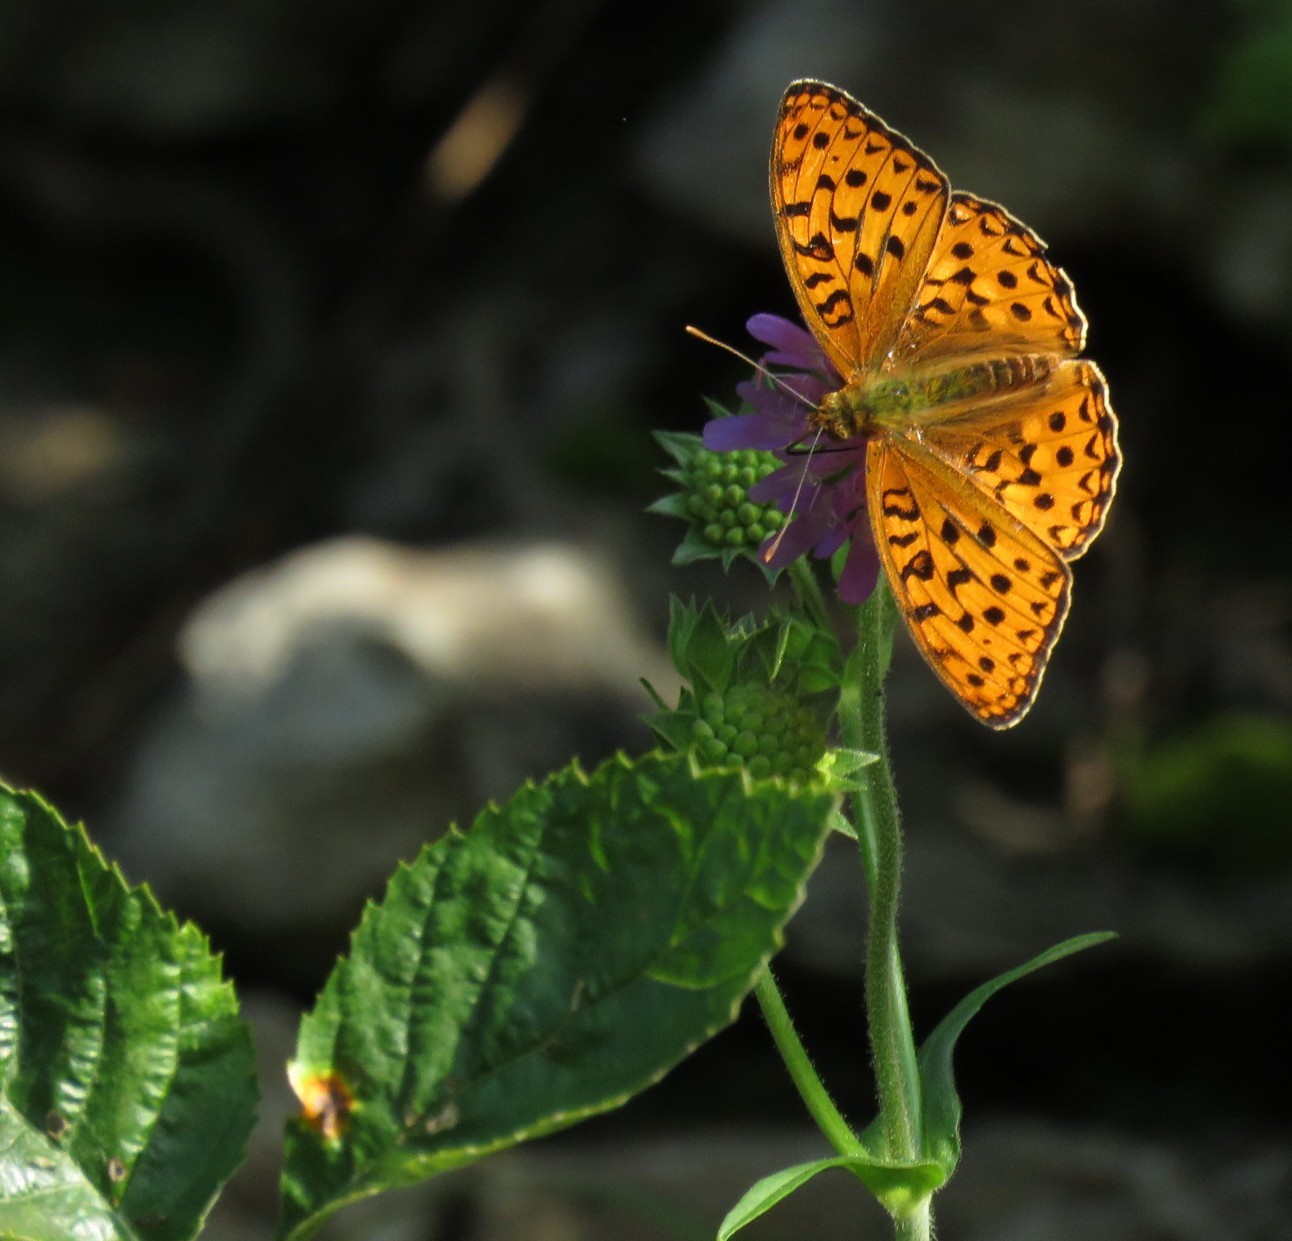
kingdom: Animalia
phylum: Arthropoda
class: Insecta
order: Lepidoptera
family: Nymphalidae
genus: Fabriciana
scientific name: Fabriciana adippe
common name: High brown fritillary
